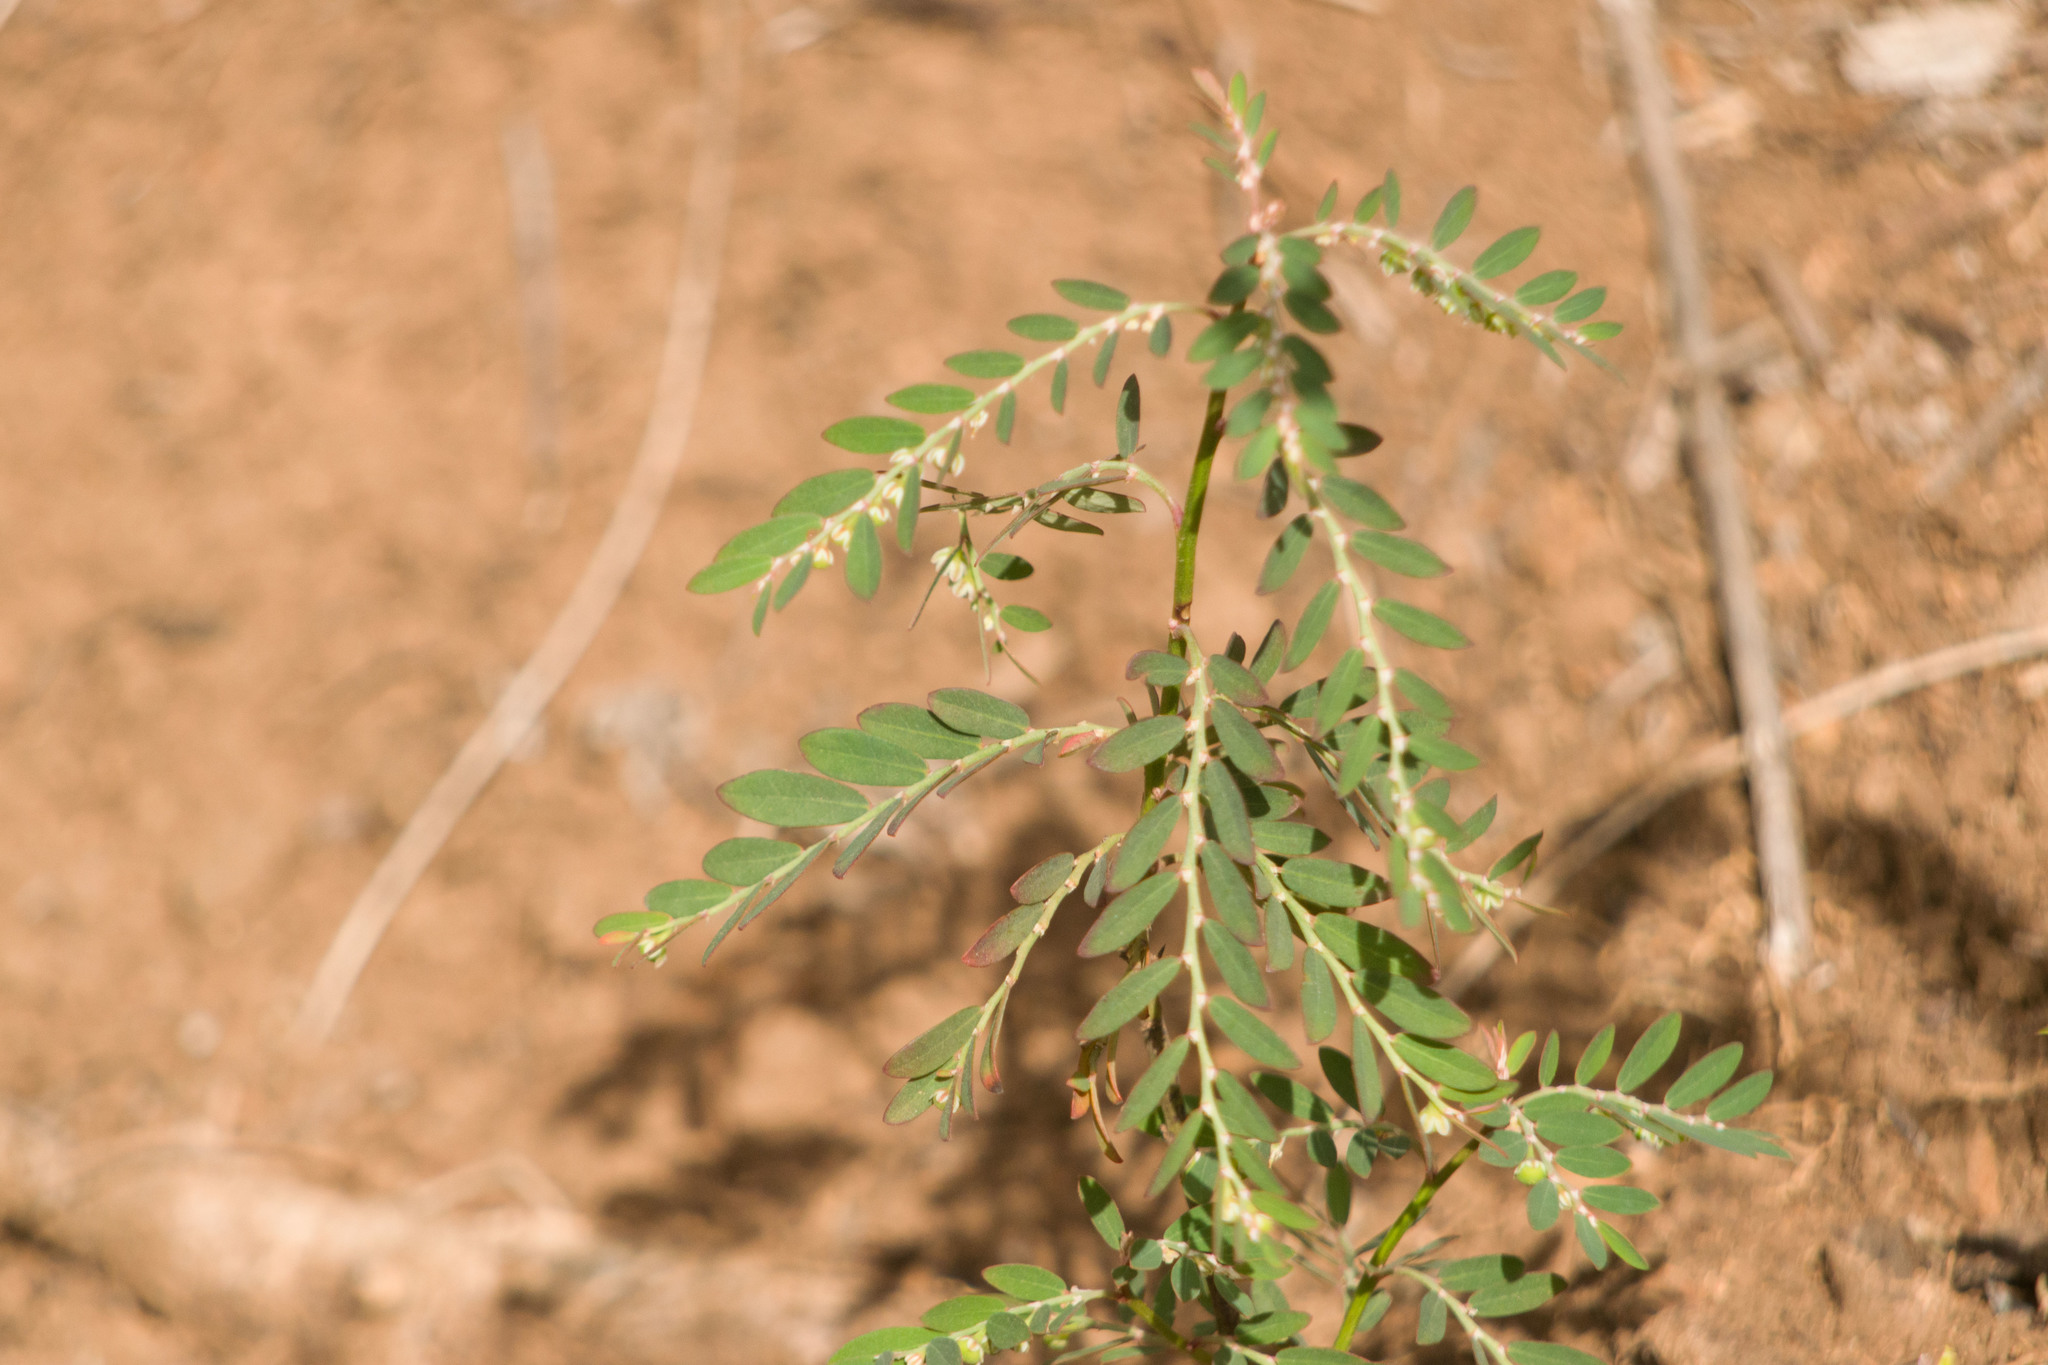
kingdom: Plantae
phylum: Tracheophyta
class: Magnoliopsida
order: Malpighiales
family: Phyllanthaceae
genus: Phyllanthus
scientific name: Phyllanthus debilis
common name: Niruri
